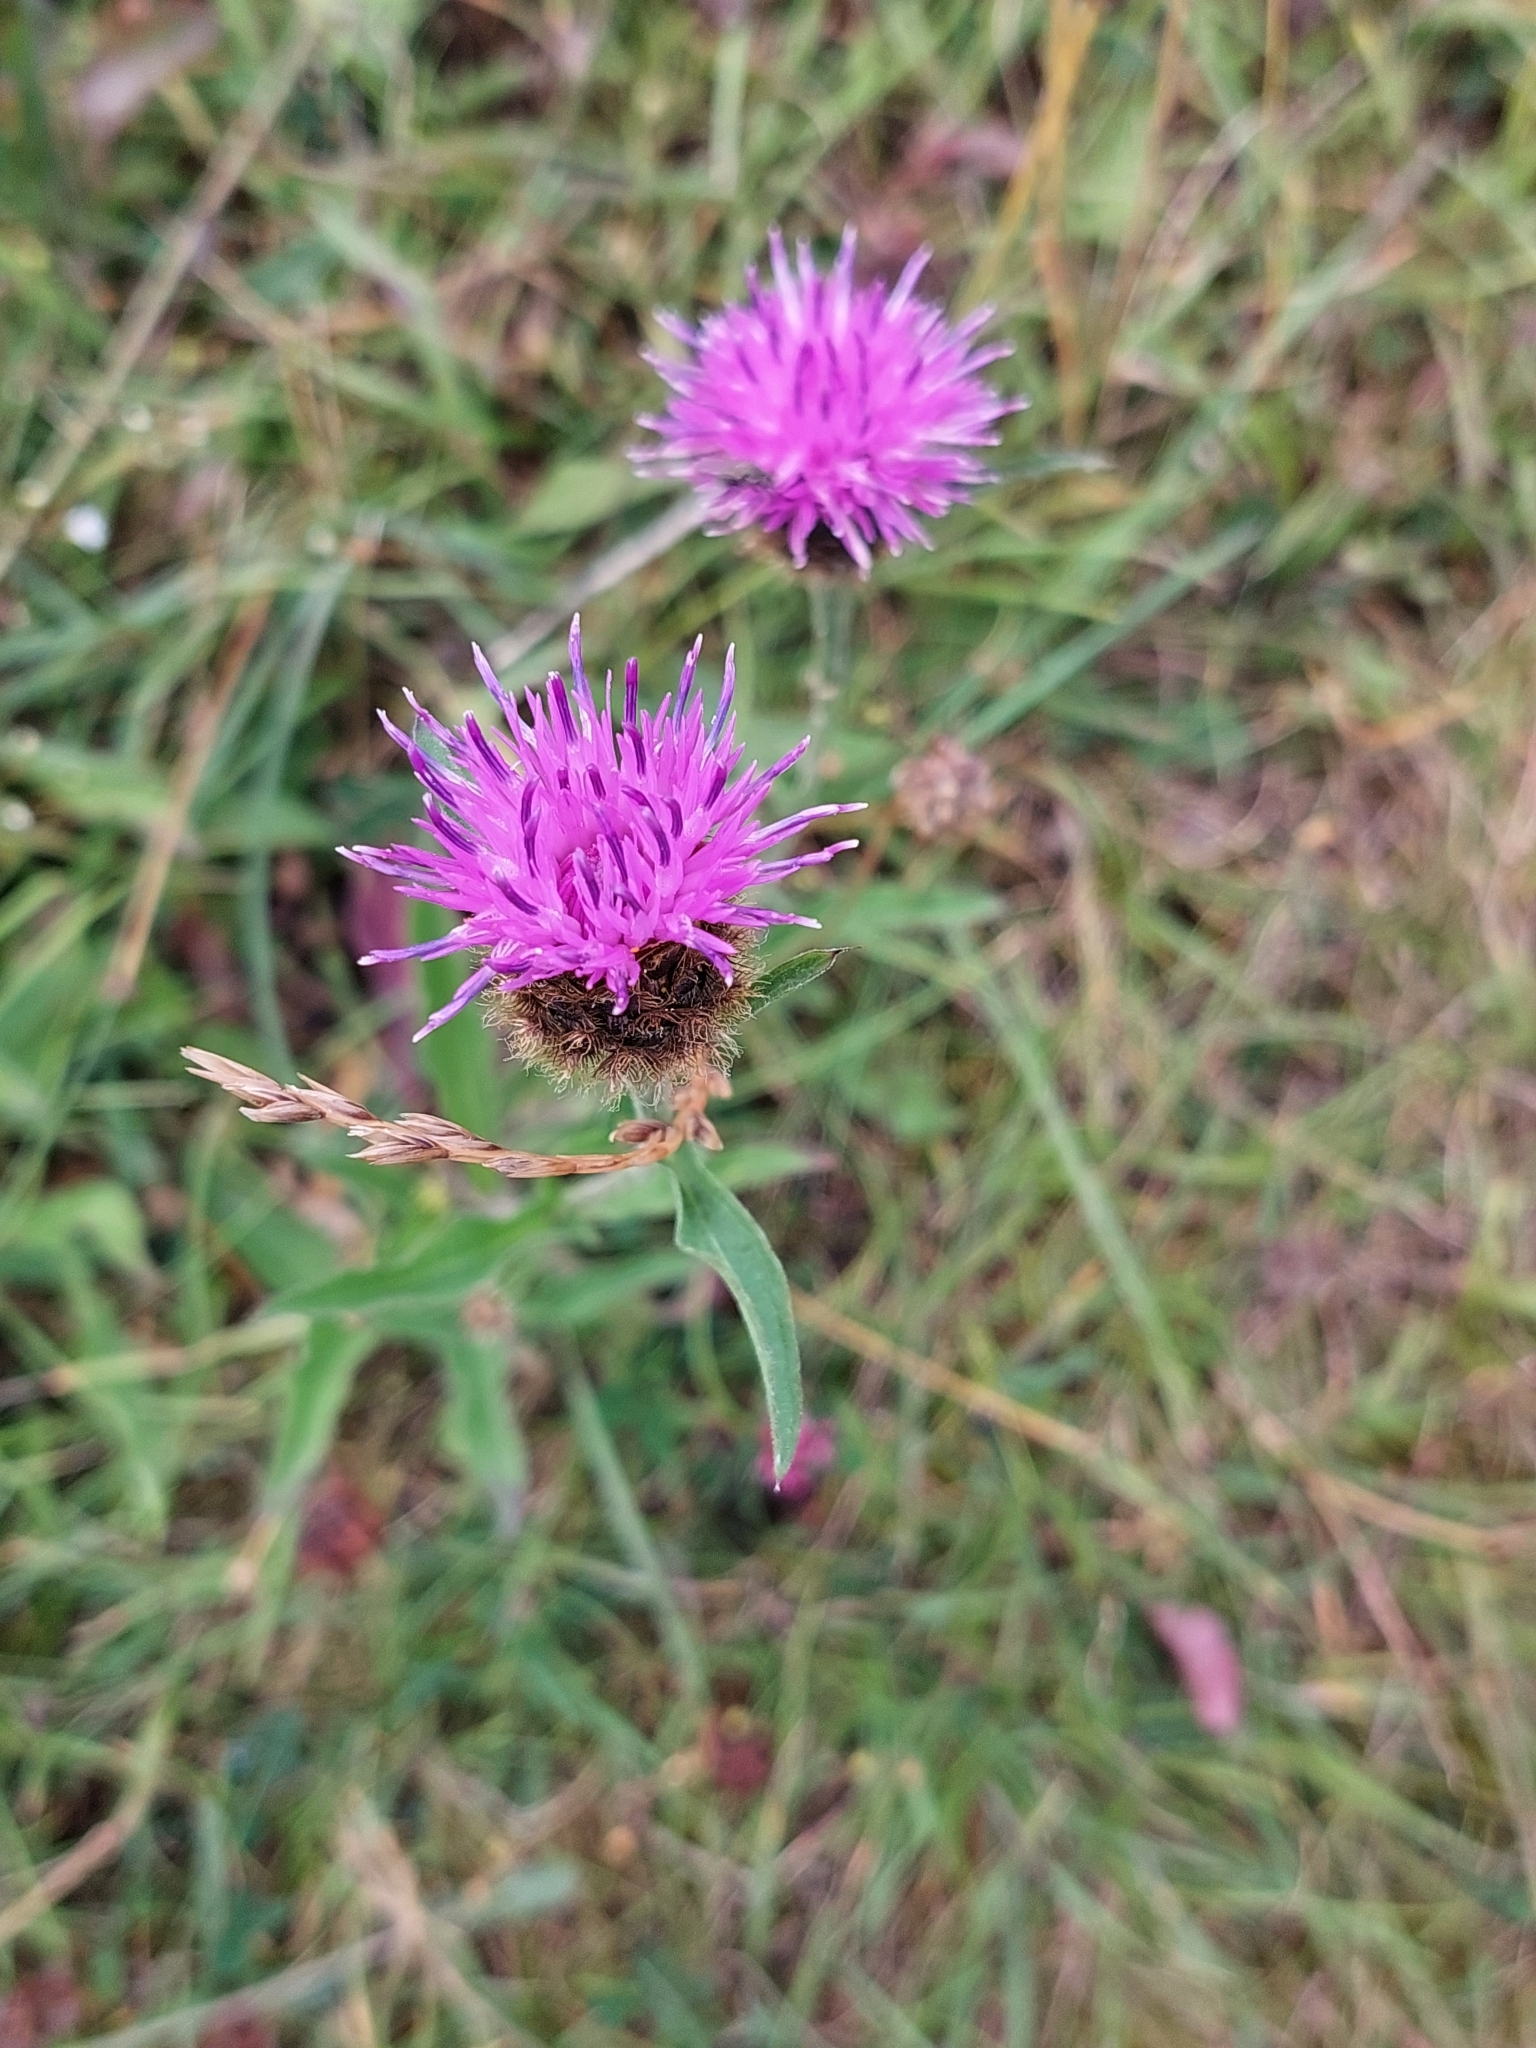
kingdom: Plantae
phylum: Tracheophyta
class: Magnoliopsida
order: Asterales
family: Asteraceae
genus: Centaurea
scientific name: Centaurea nigra
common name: Lesser knapweed
